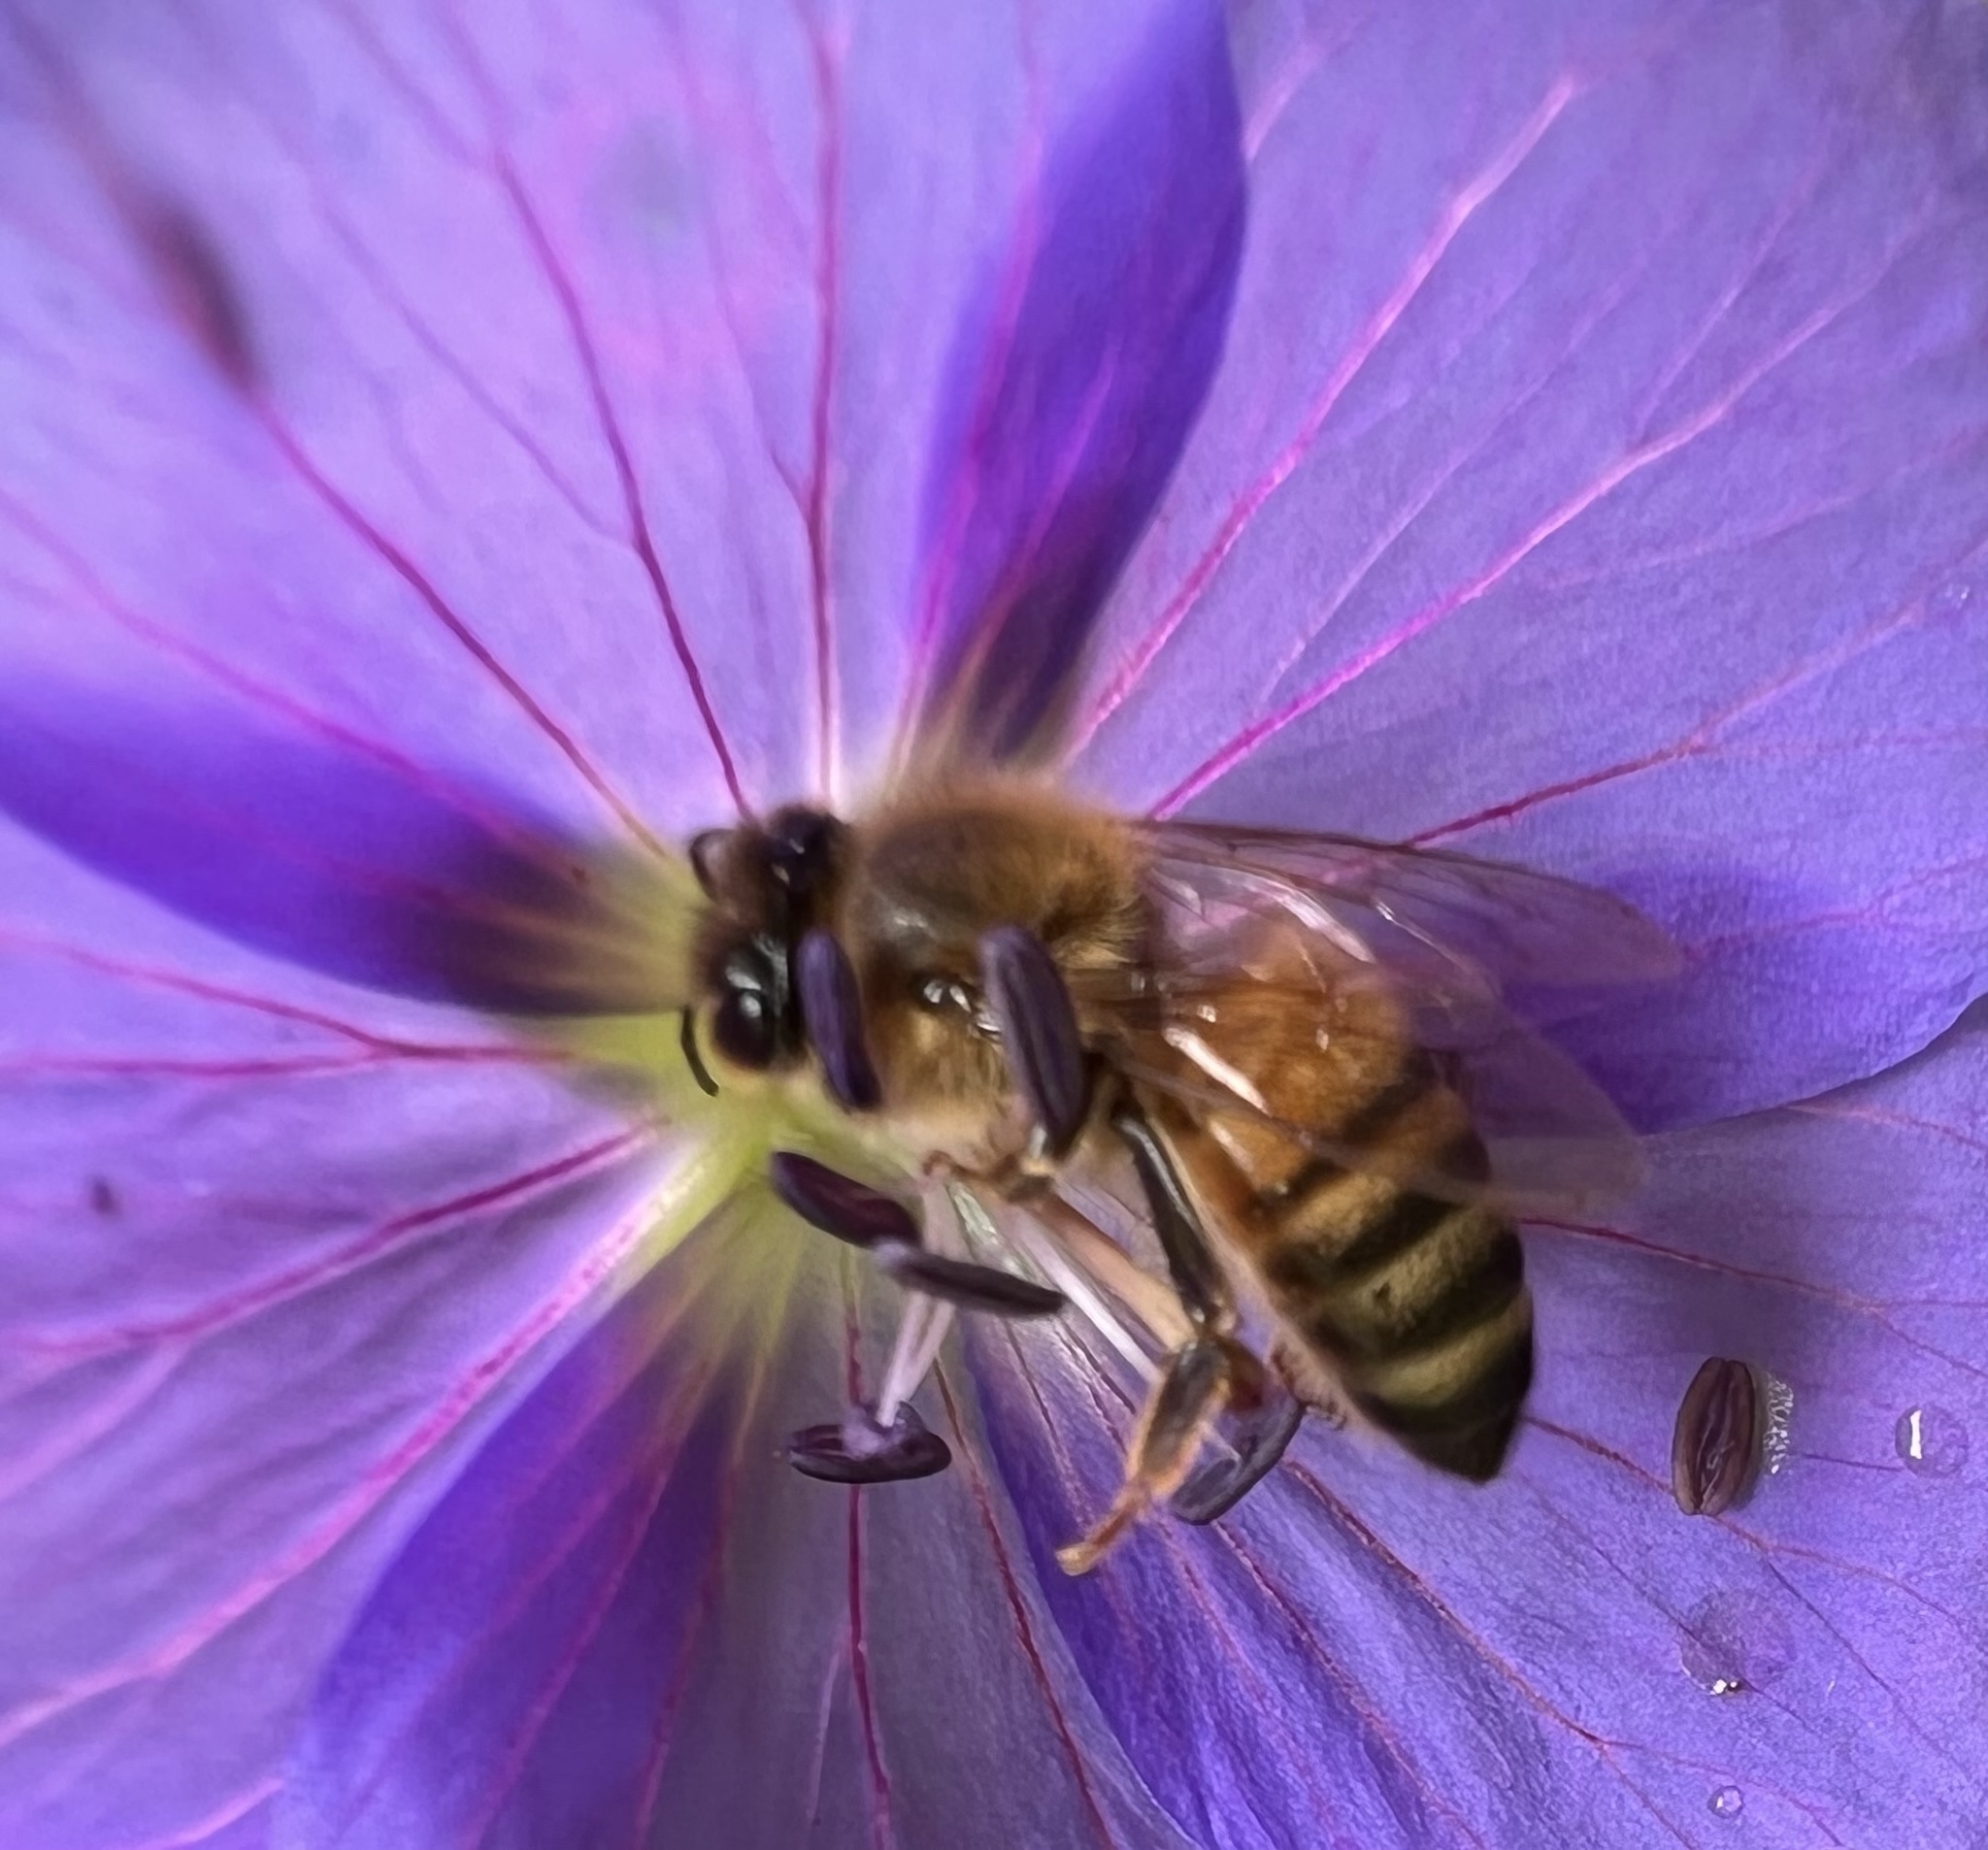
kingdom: Animalia
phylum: Arthropoda
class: Insecta
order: Hymenoptera
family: Apidae
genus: Apis
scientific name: Apis mellifera
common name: Honey bee
